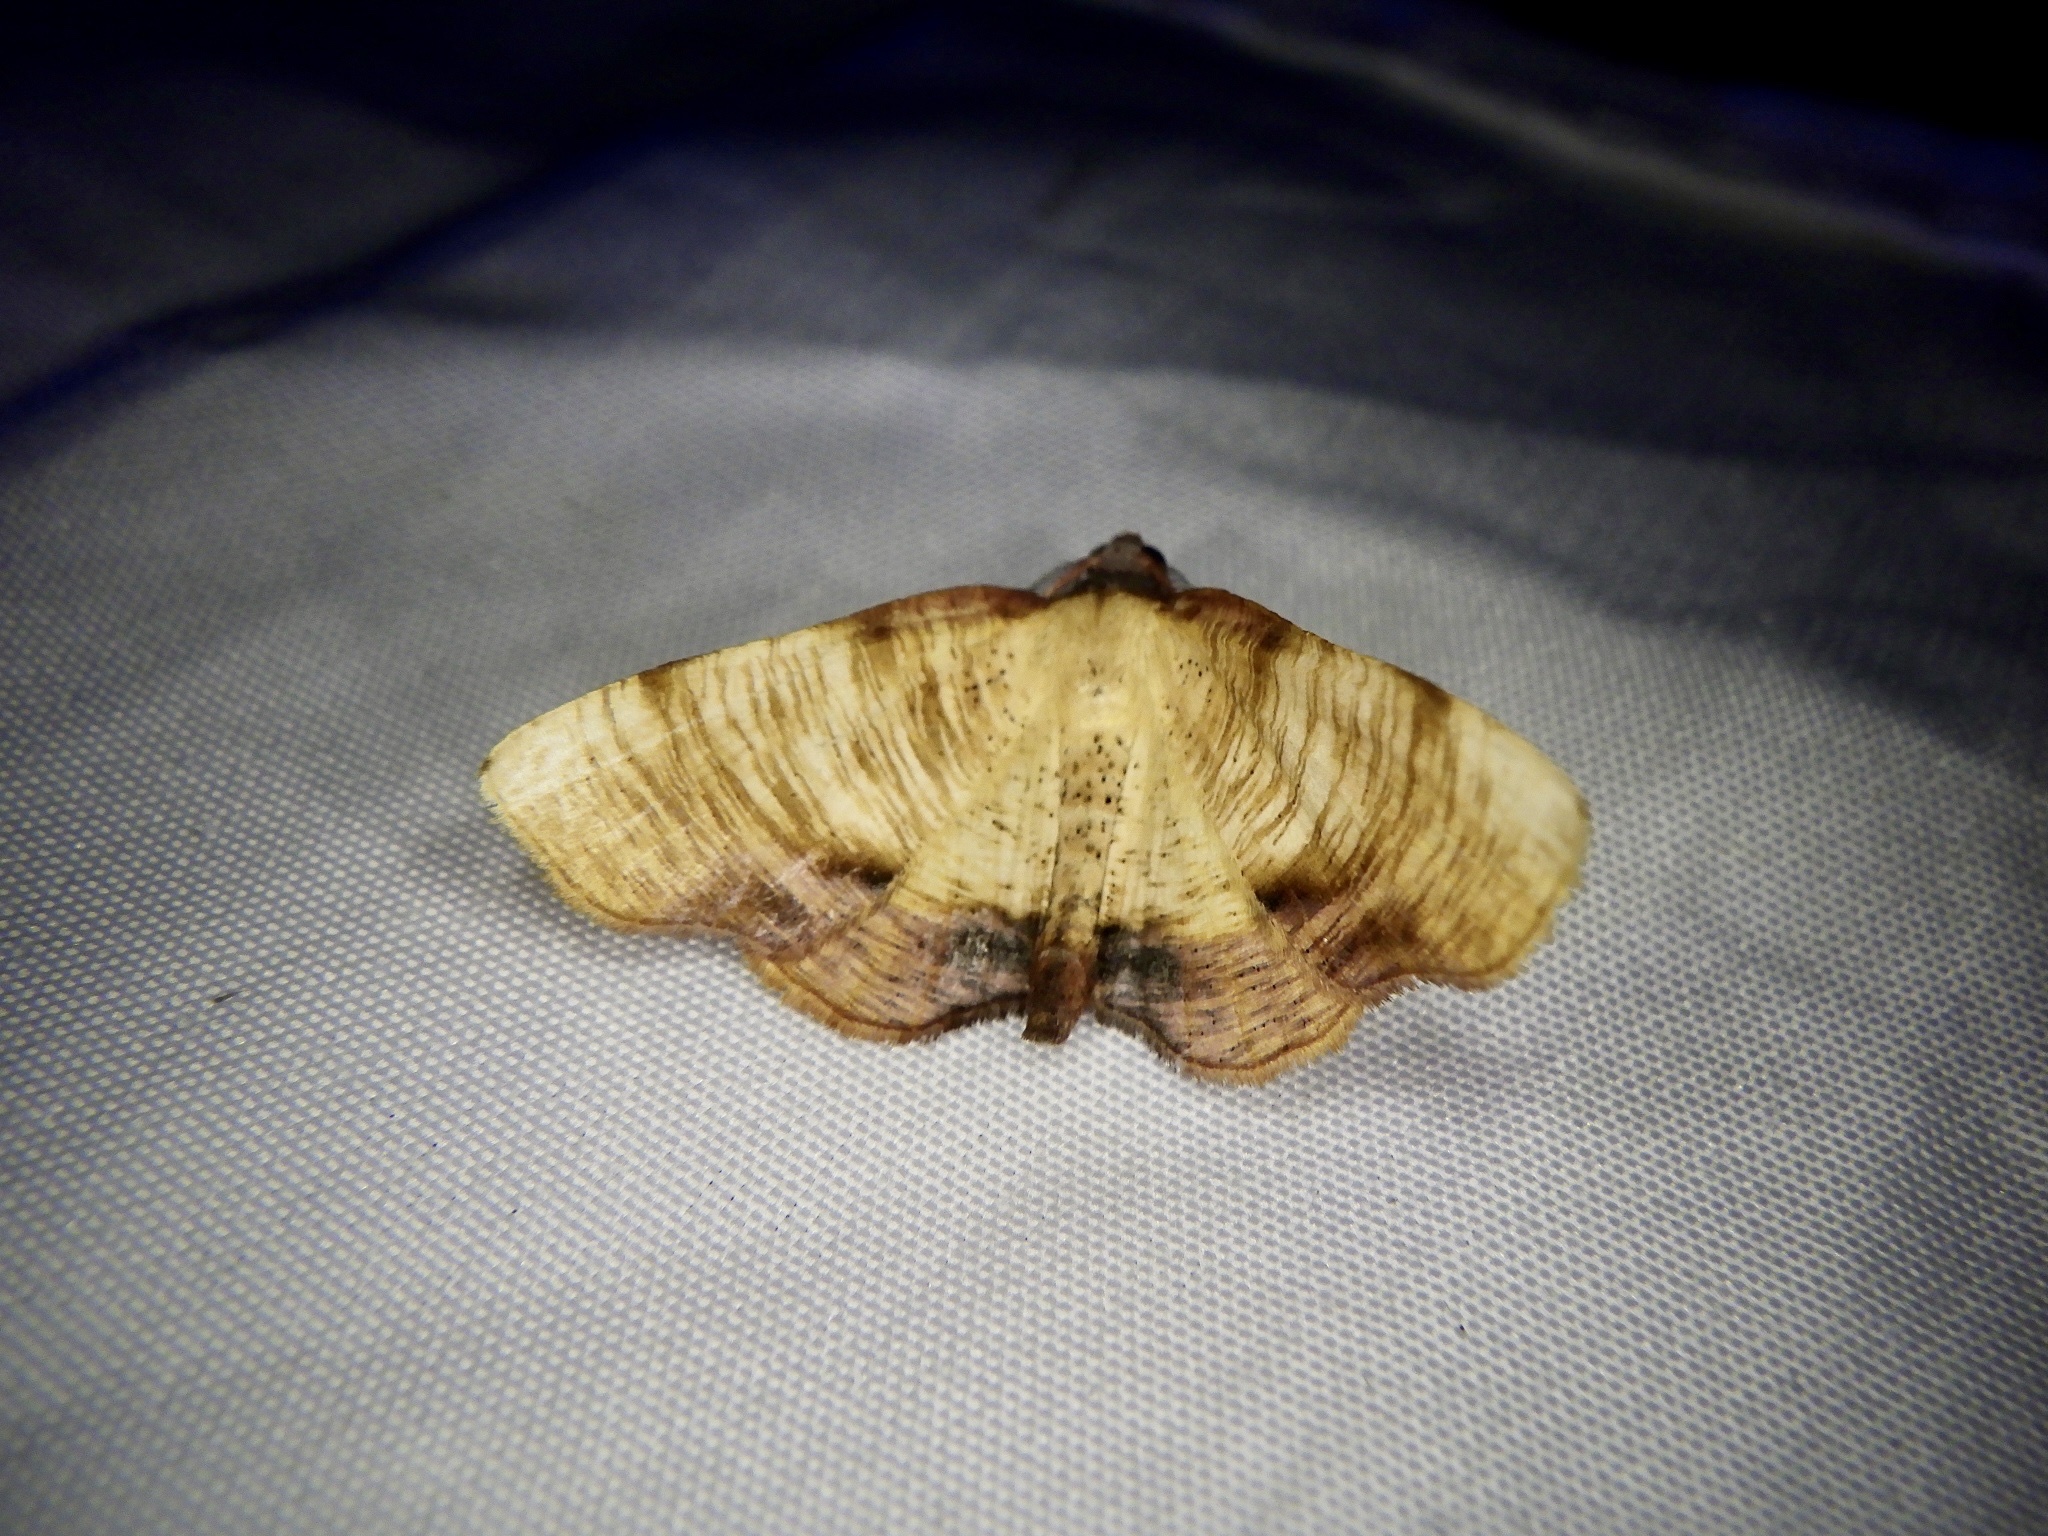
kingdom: Animalia
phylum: Arthropoda
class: Insecta
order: Lepidoptera
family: Geometridae
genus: Plagodis
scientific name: Plagodis dolabraria
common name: Scorched wing
